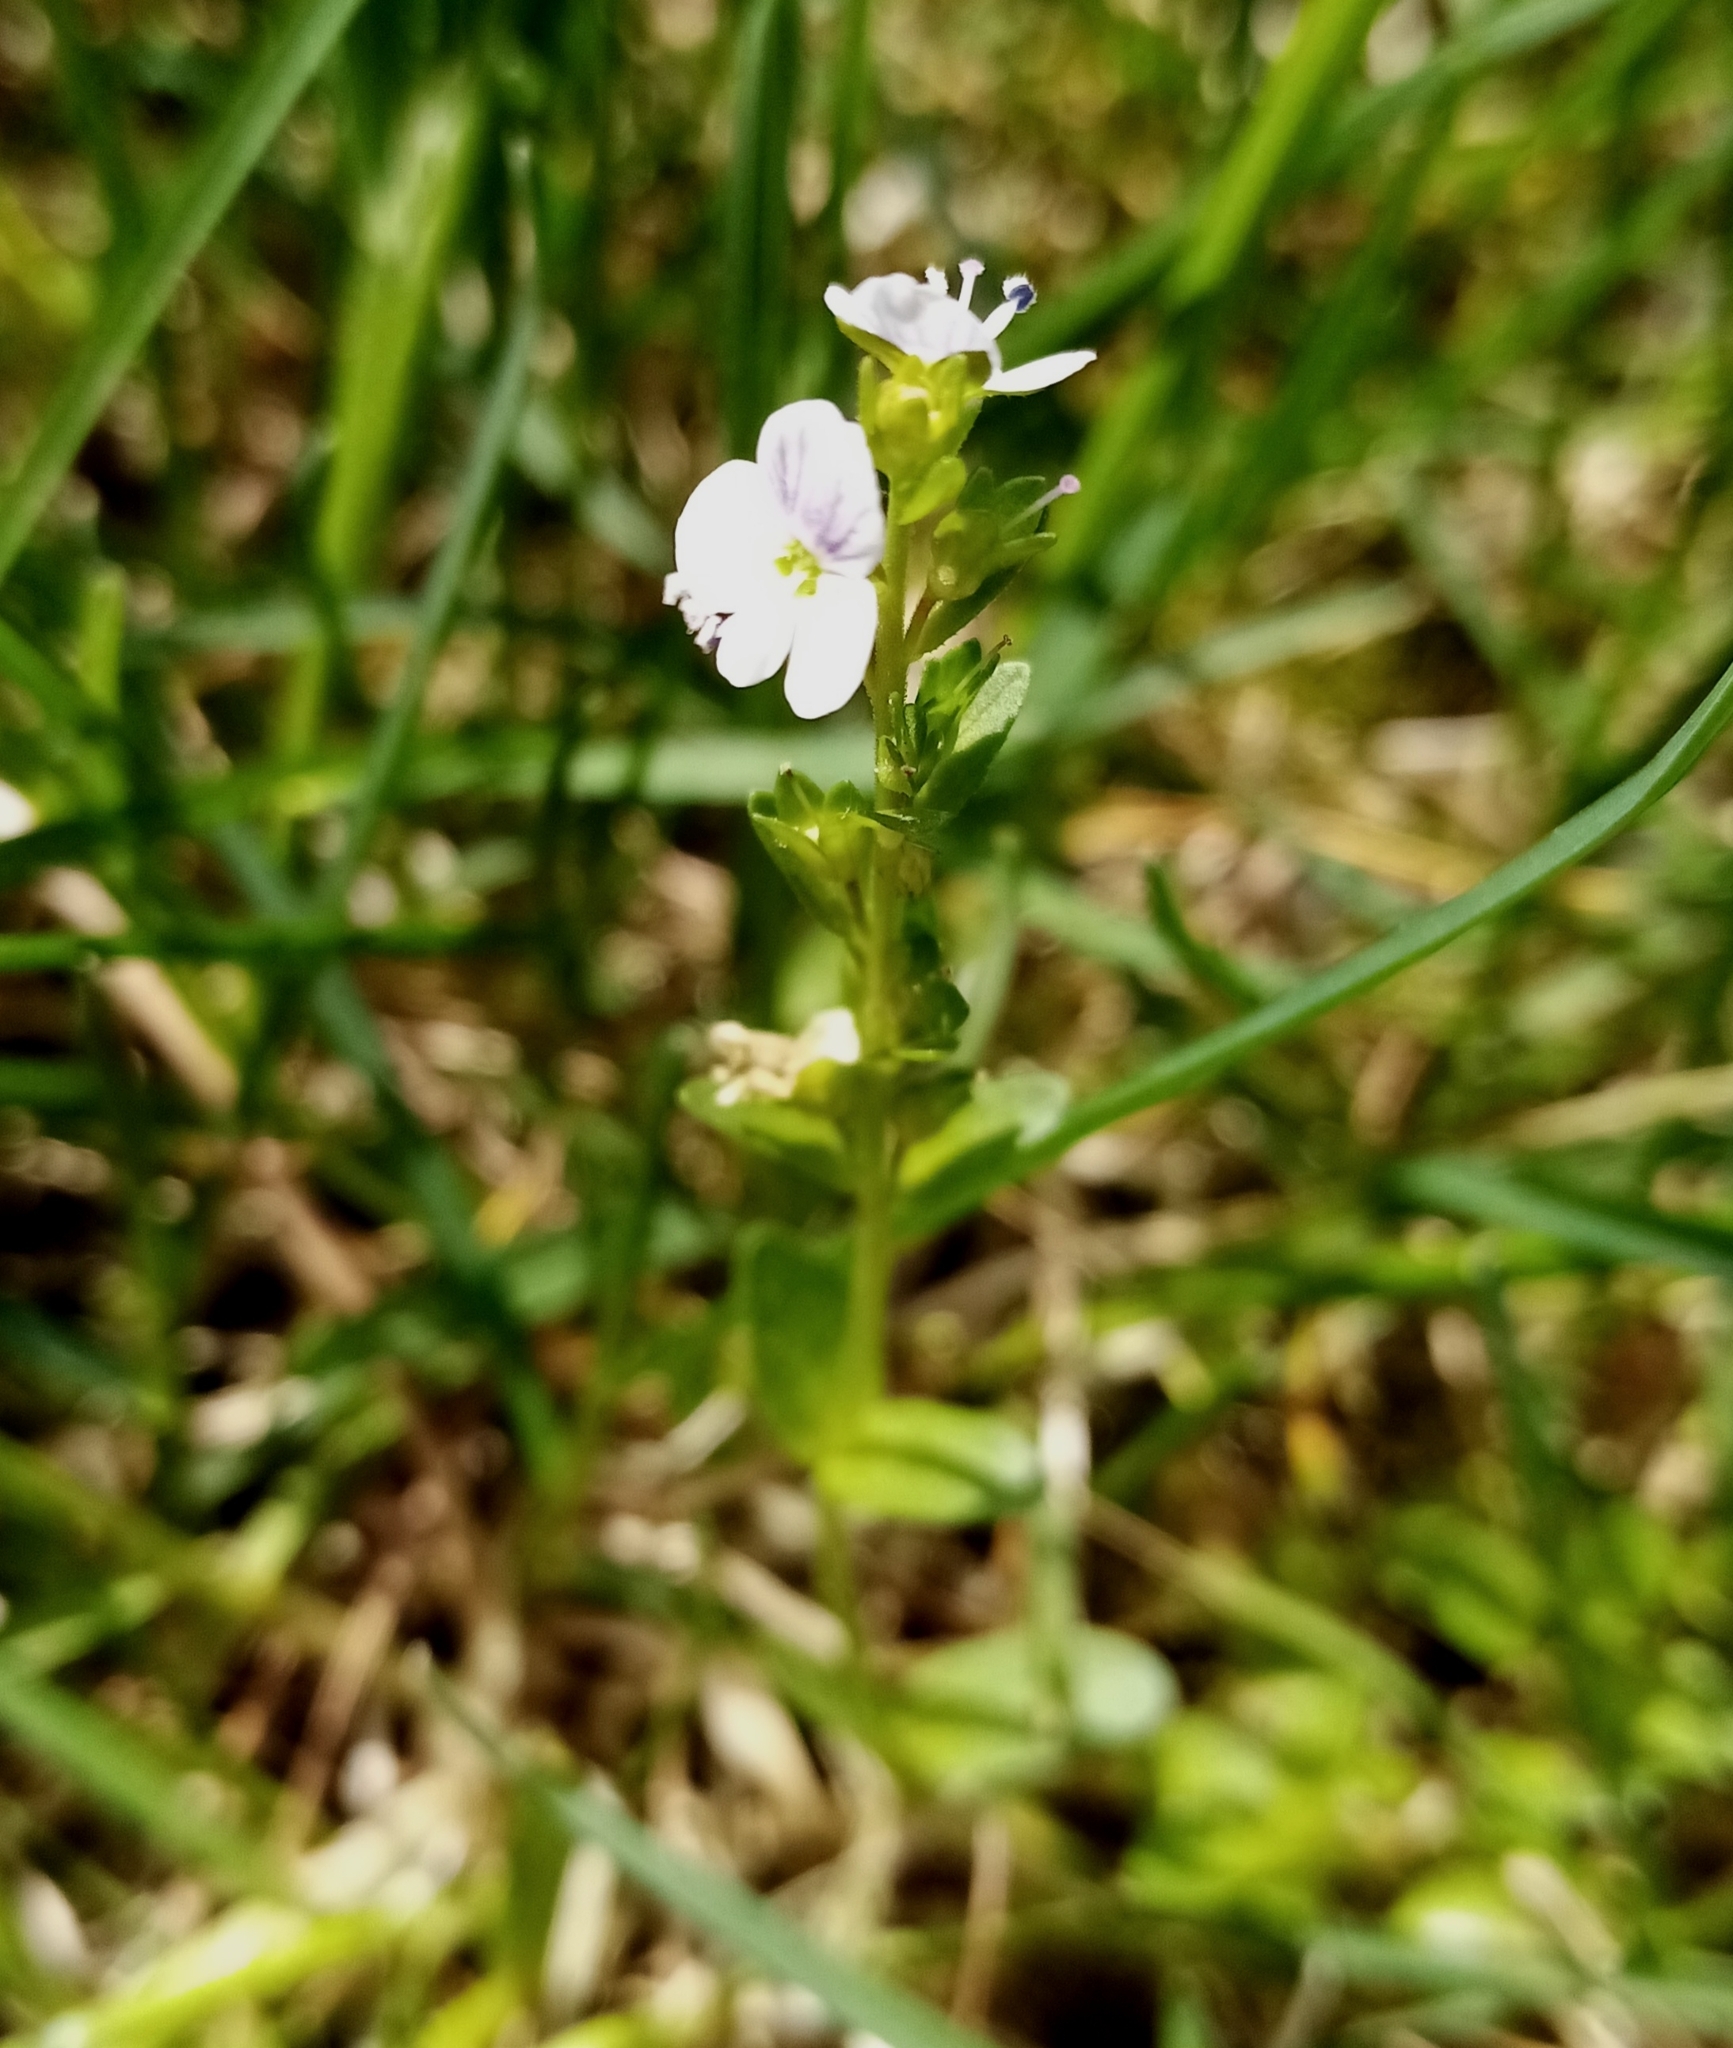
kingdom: Plantae
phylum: Tracheophyta
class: Magnoliopsida
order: Lamiales
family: Plantaginaceae
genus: Veronica
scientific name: Veronica serpyllifolia
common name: Thyme-leaved speedwell
